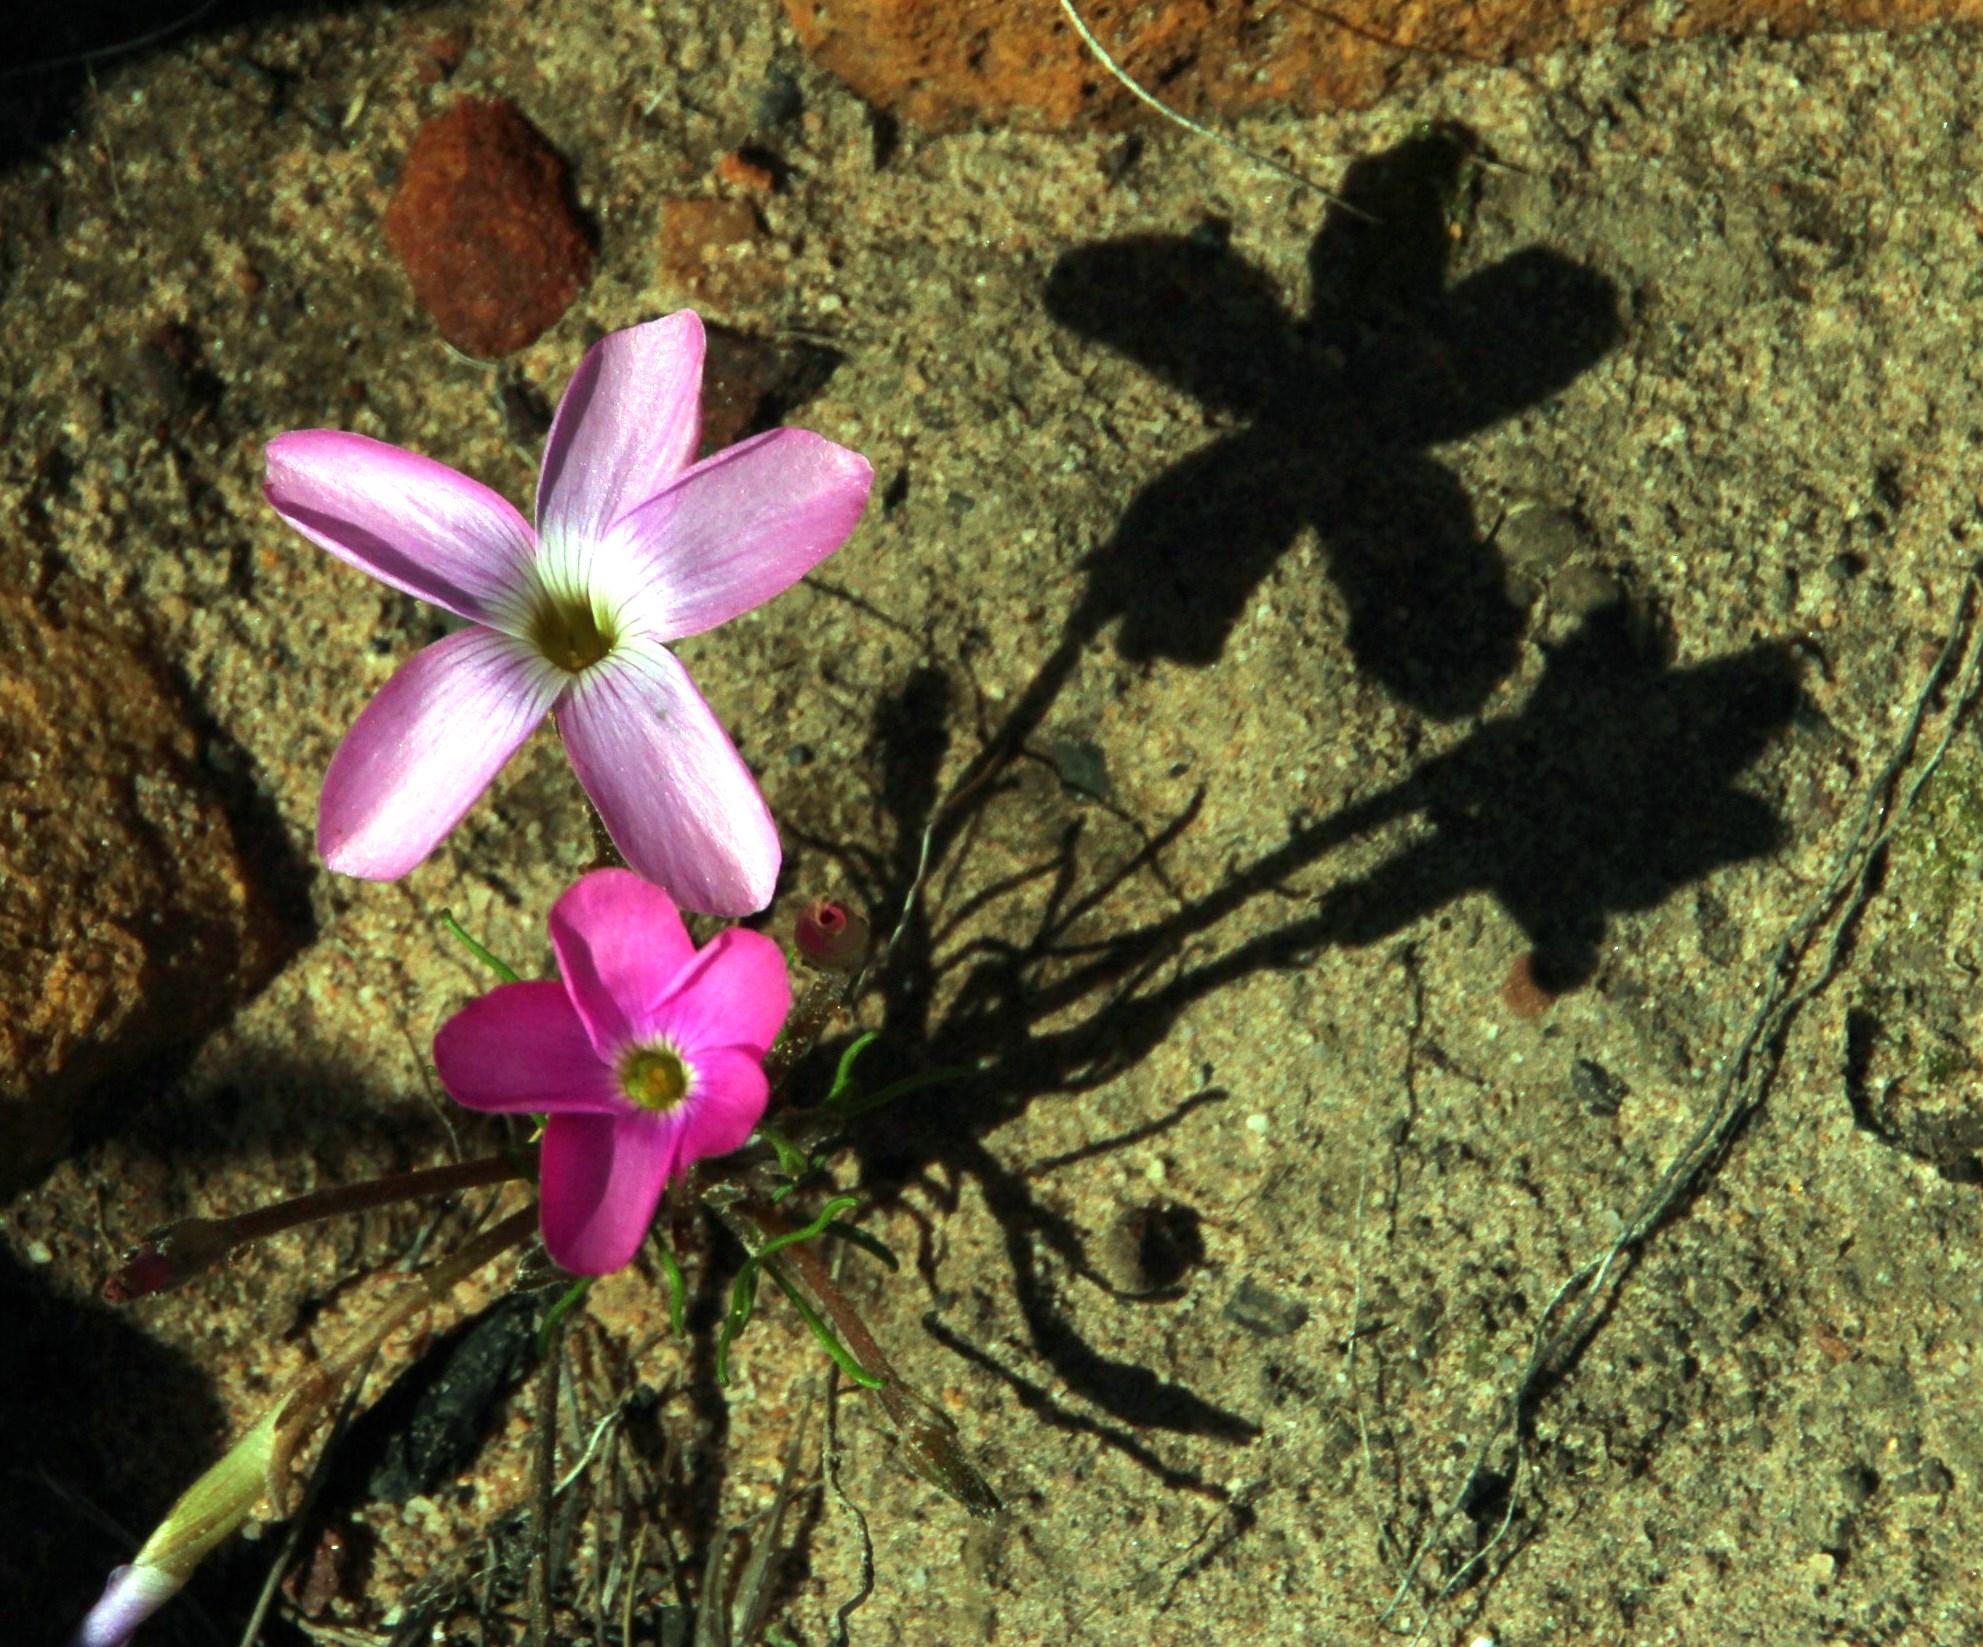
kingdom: Plantae
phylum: Tracheophyta
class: Magnoliopsida
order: Oxalidales
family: Oxalidaceae
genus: Oxalis
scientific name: Oxalis polyphylla
